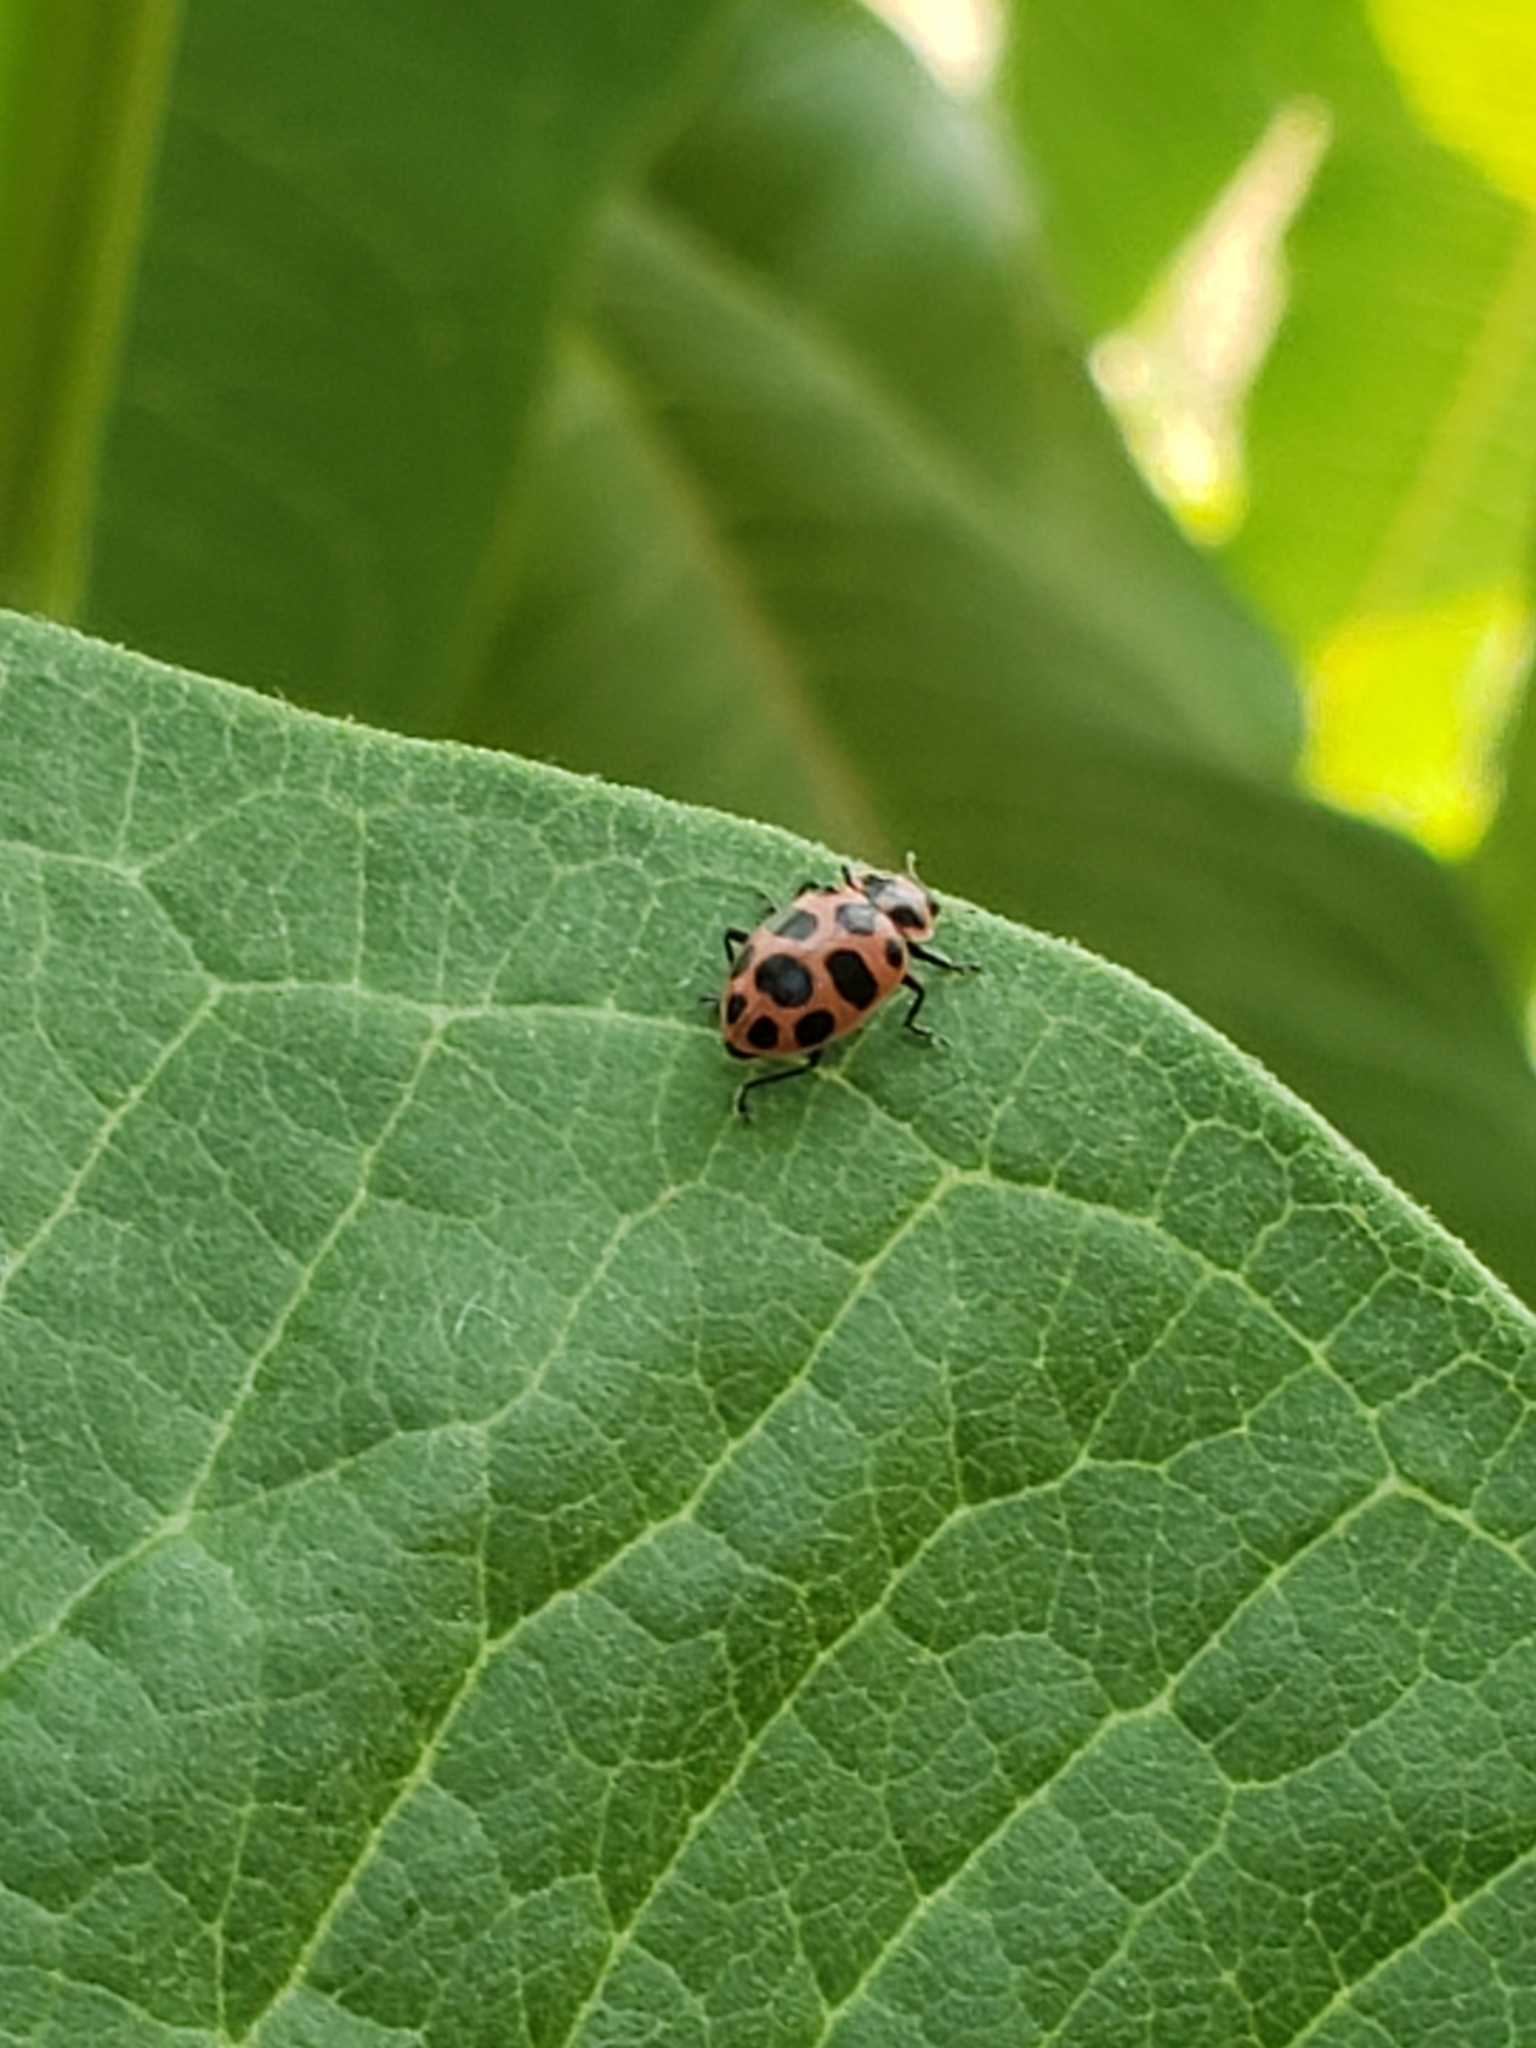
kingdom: Animalia
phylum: Arthropoda
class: Insecta
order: Coleoptera
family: Coccinellidae
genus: Coleomegilla
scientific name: Coleomegilla maculata
